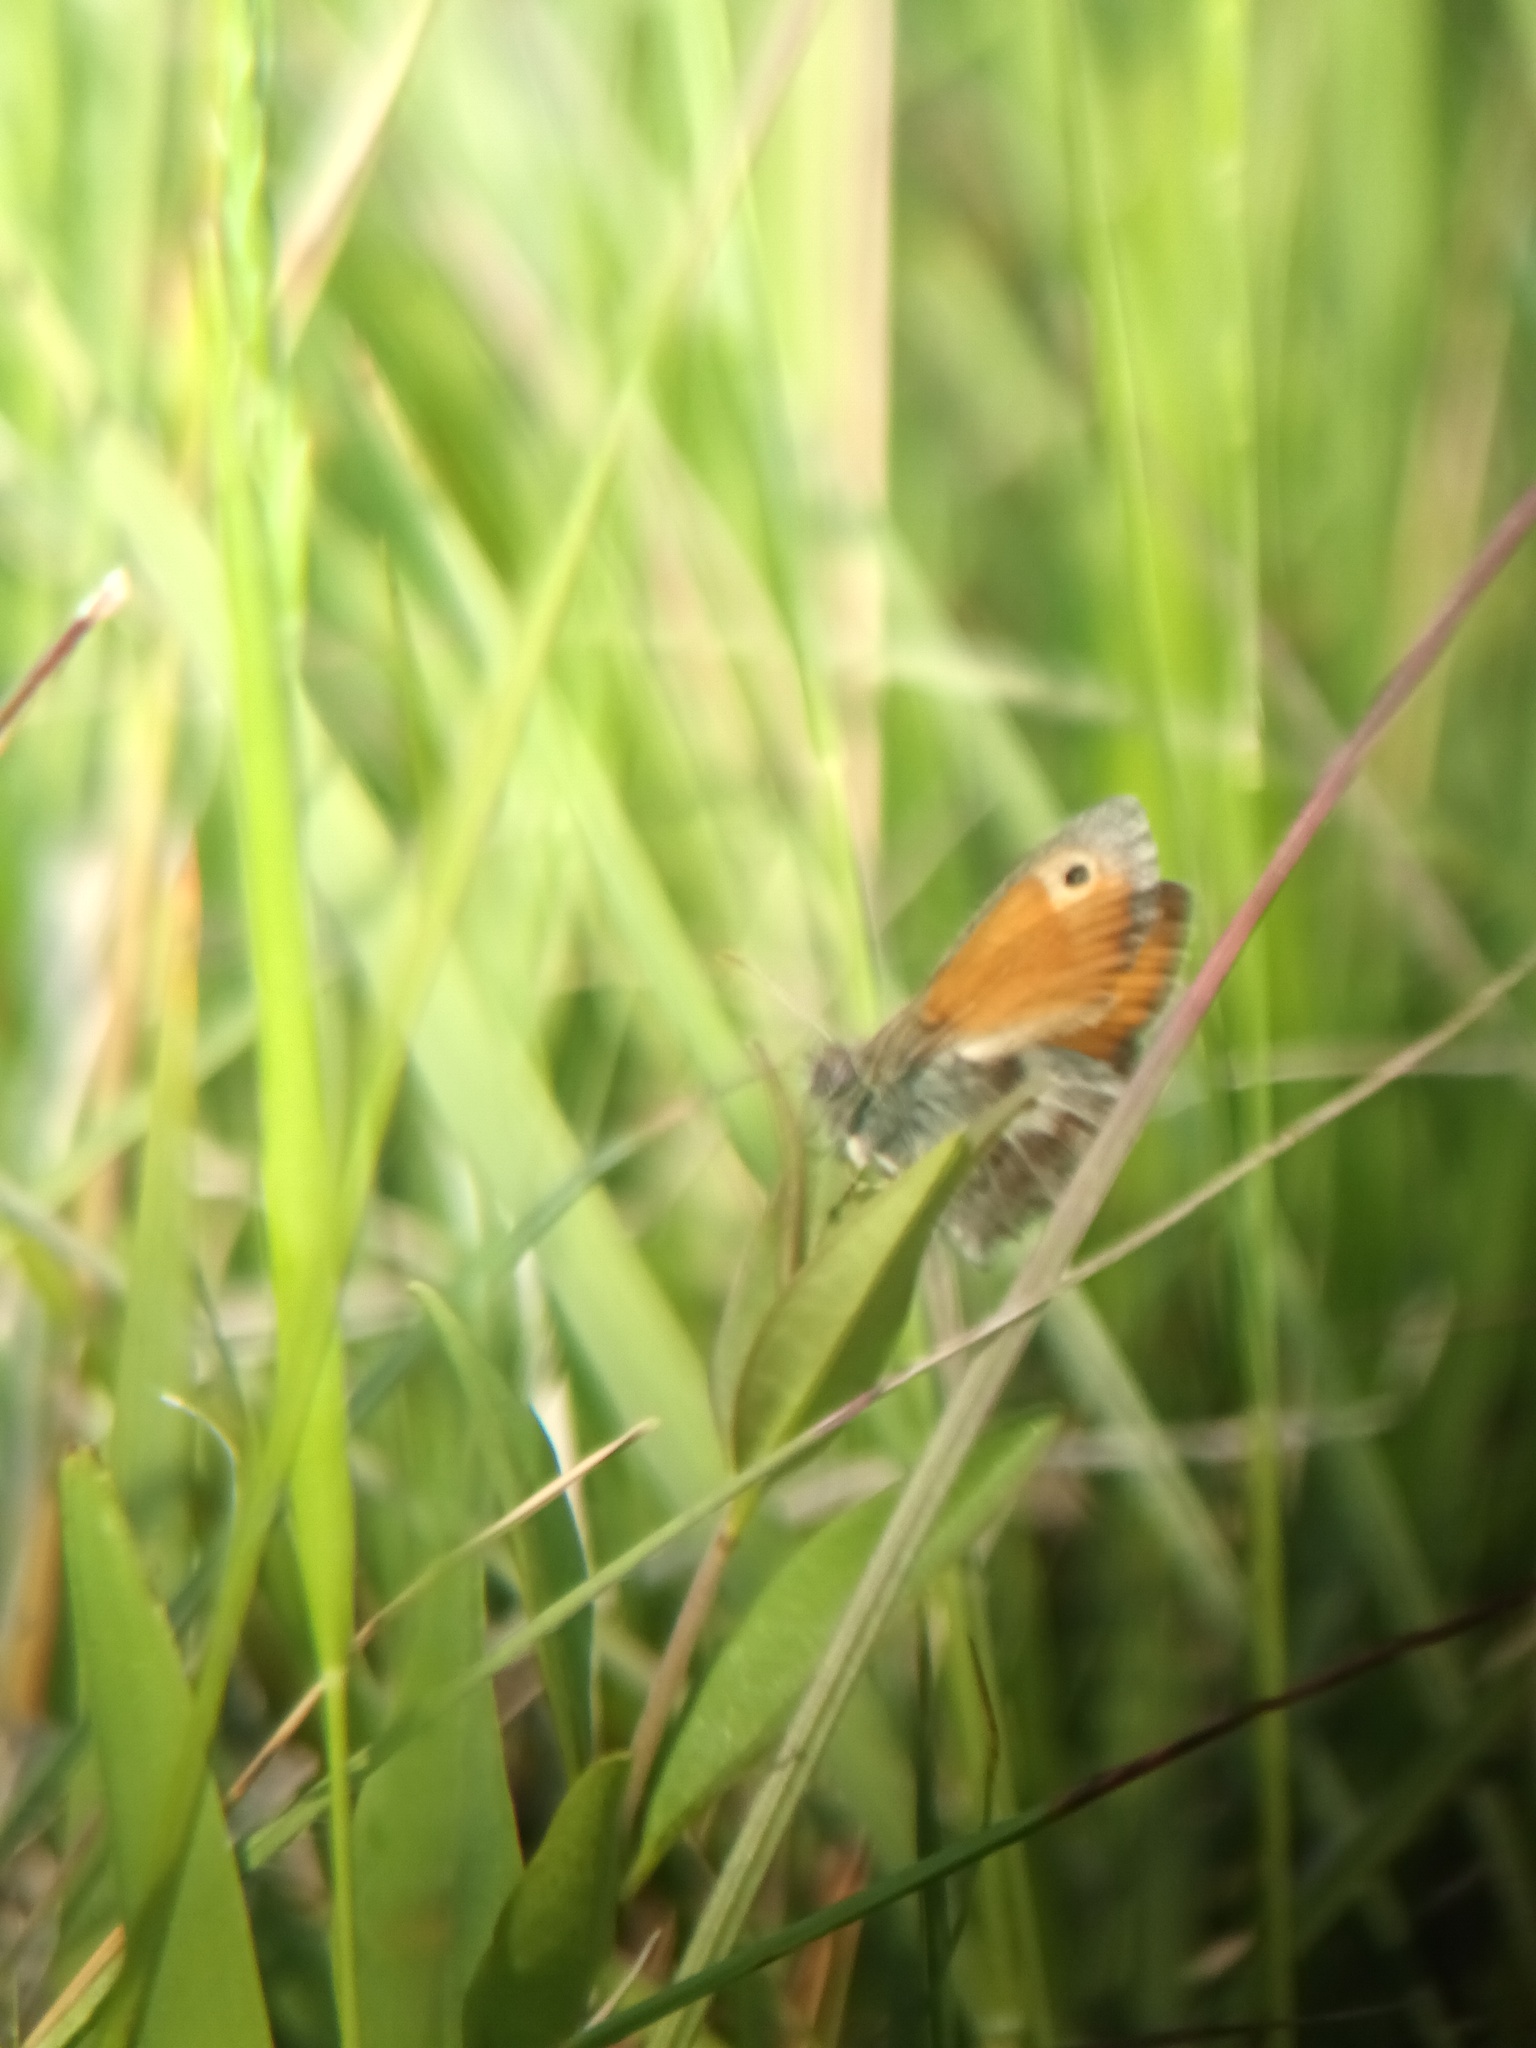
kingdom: Animalia
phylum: Arthropoda
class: Insecta
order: Lepidoptera
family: Nymphalidae
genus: Coenonympha
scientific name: Coenonympha pamphilus
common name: Small heath
